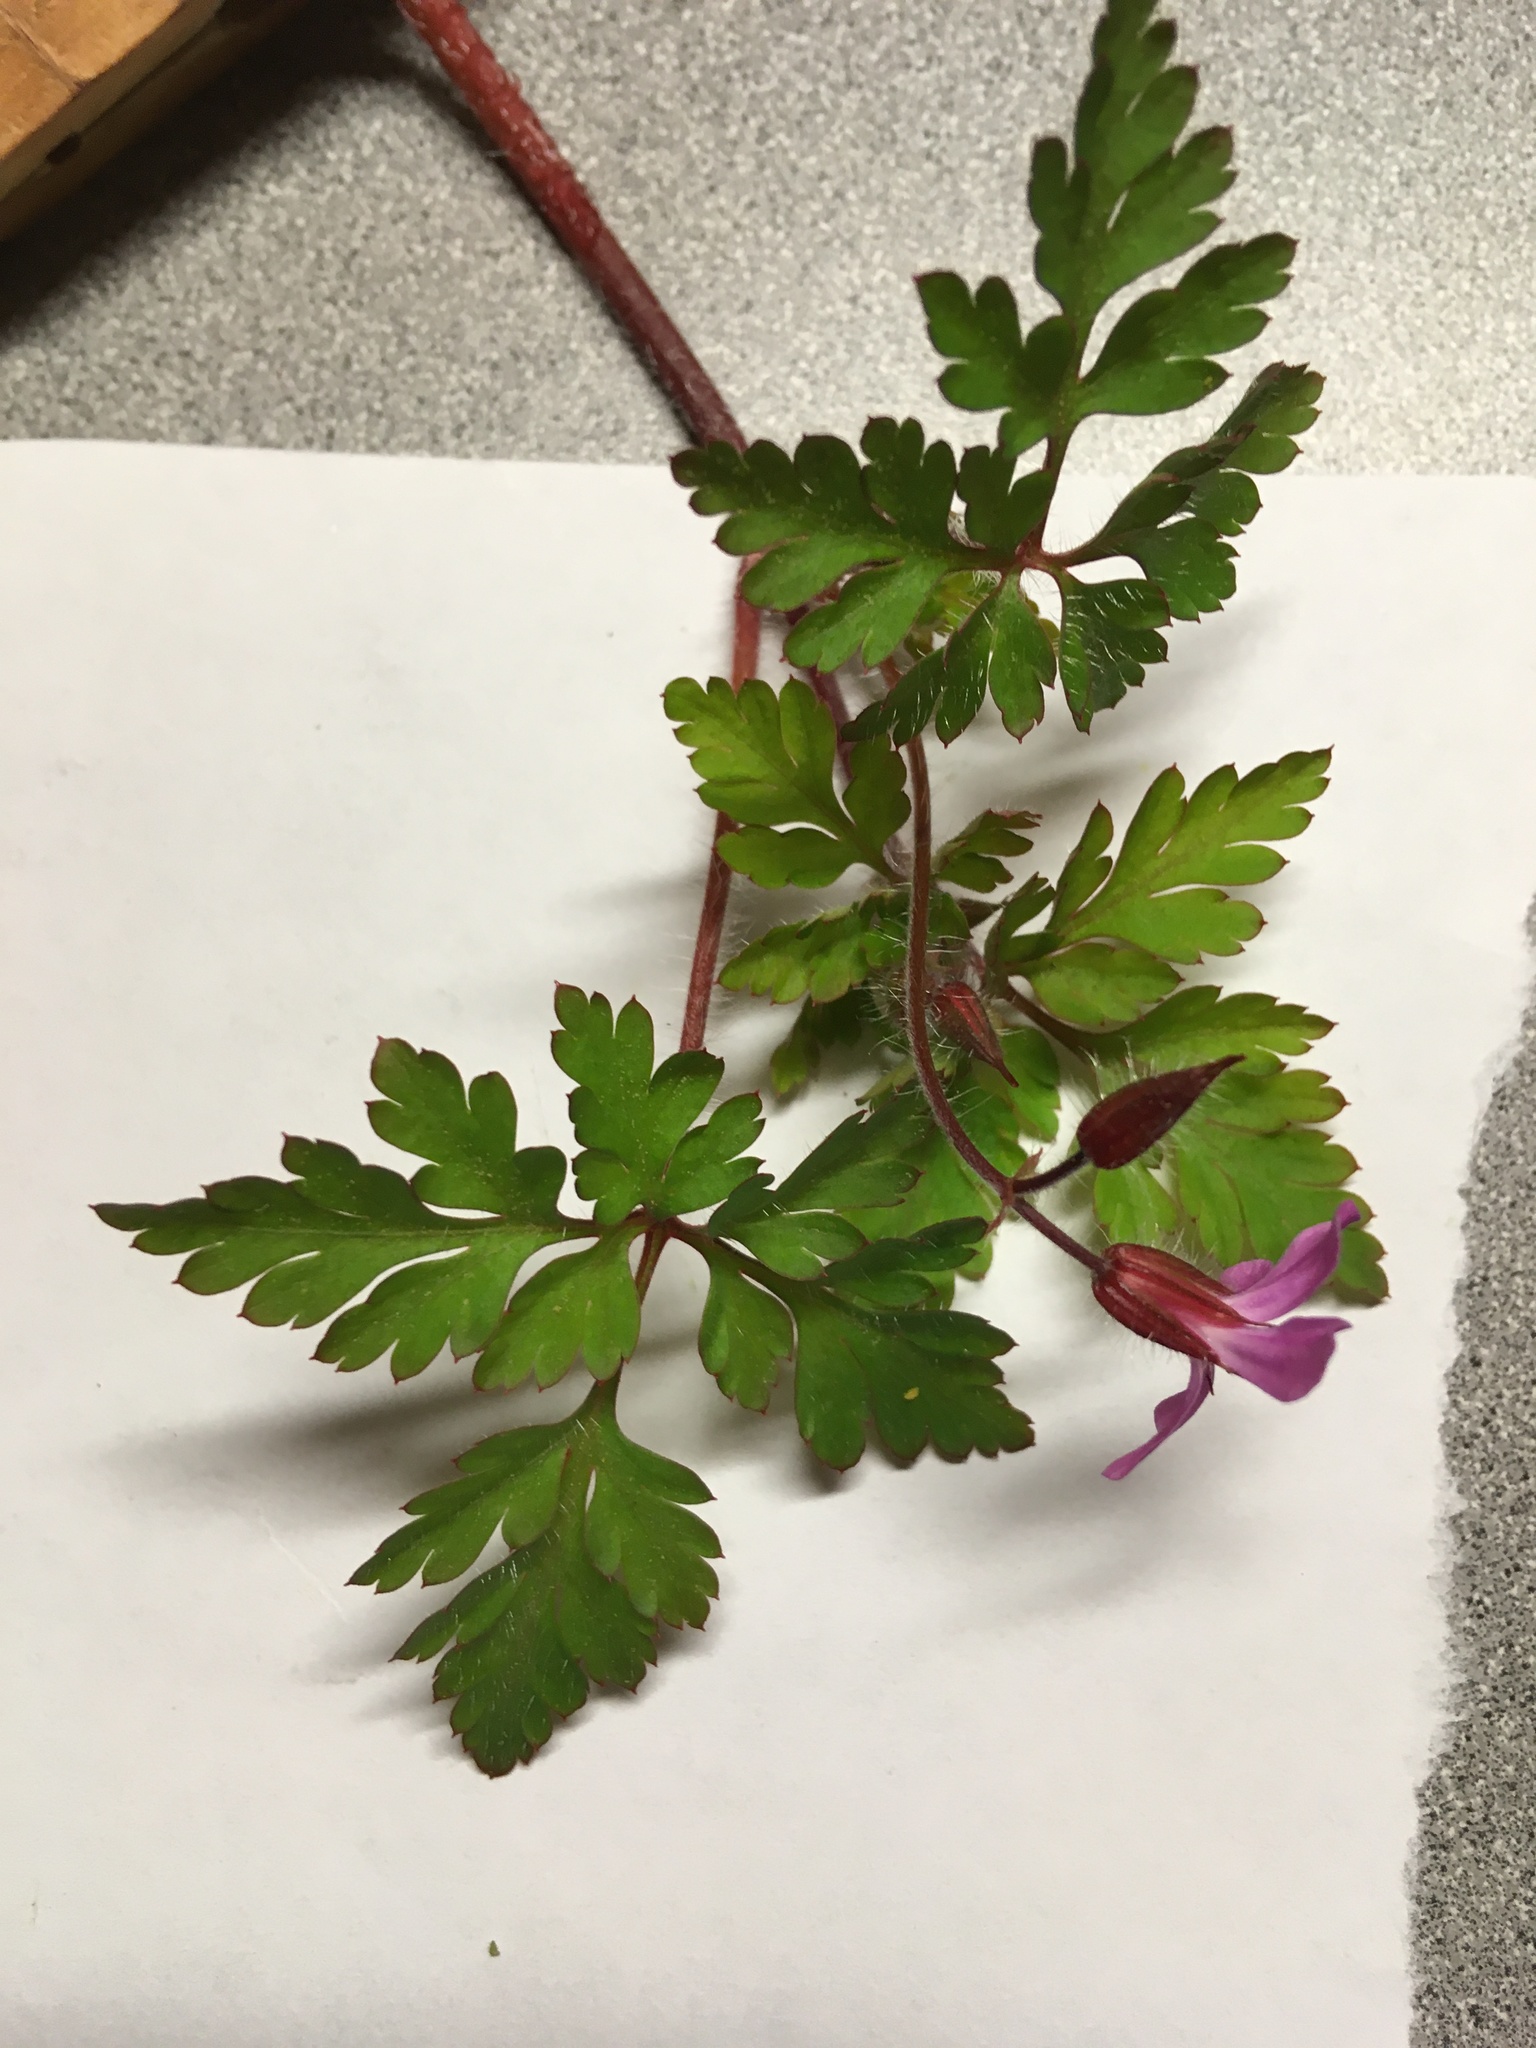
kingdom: Plantae
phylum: Tracheophyta
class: Magnoliopsida
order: Geraniales
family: Geraniaceae
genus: Geranium
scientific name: Geranium robertianum
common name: Herb-robert
